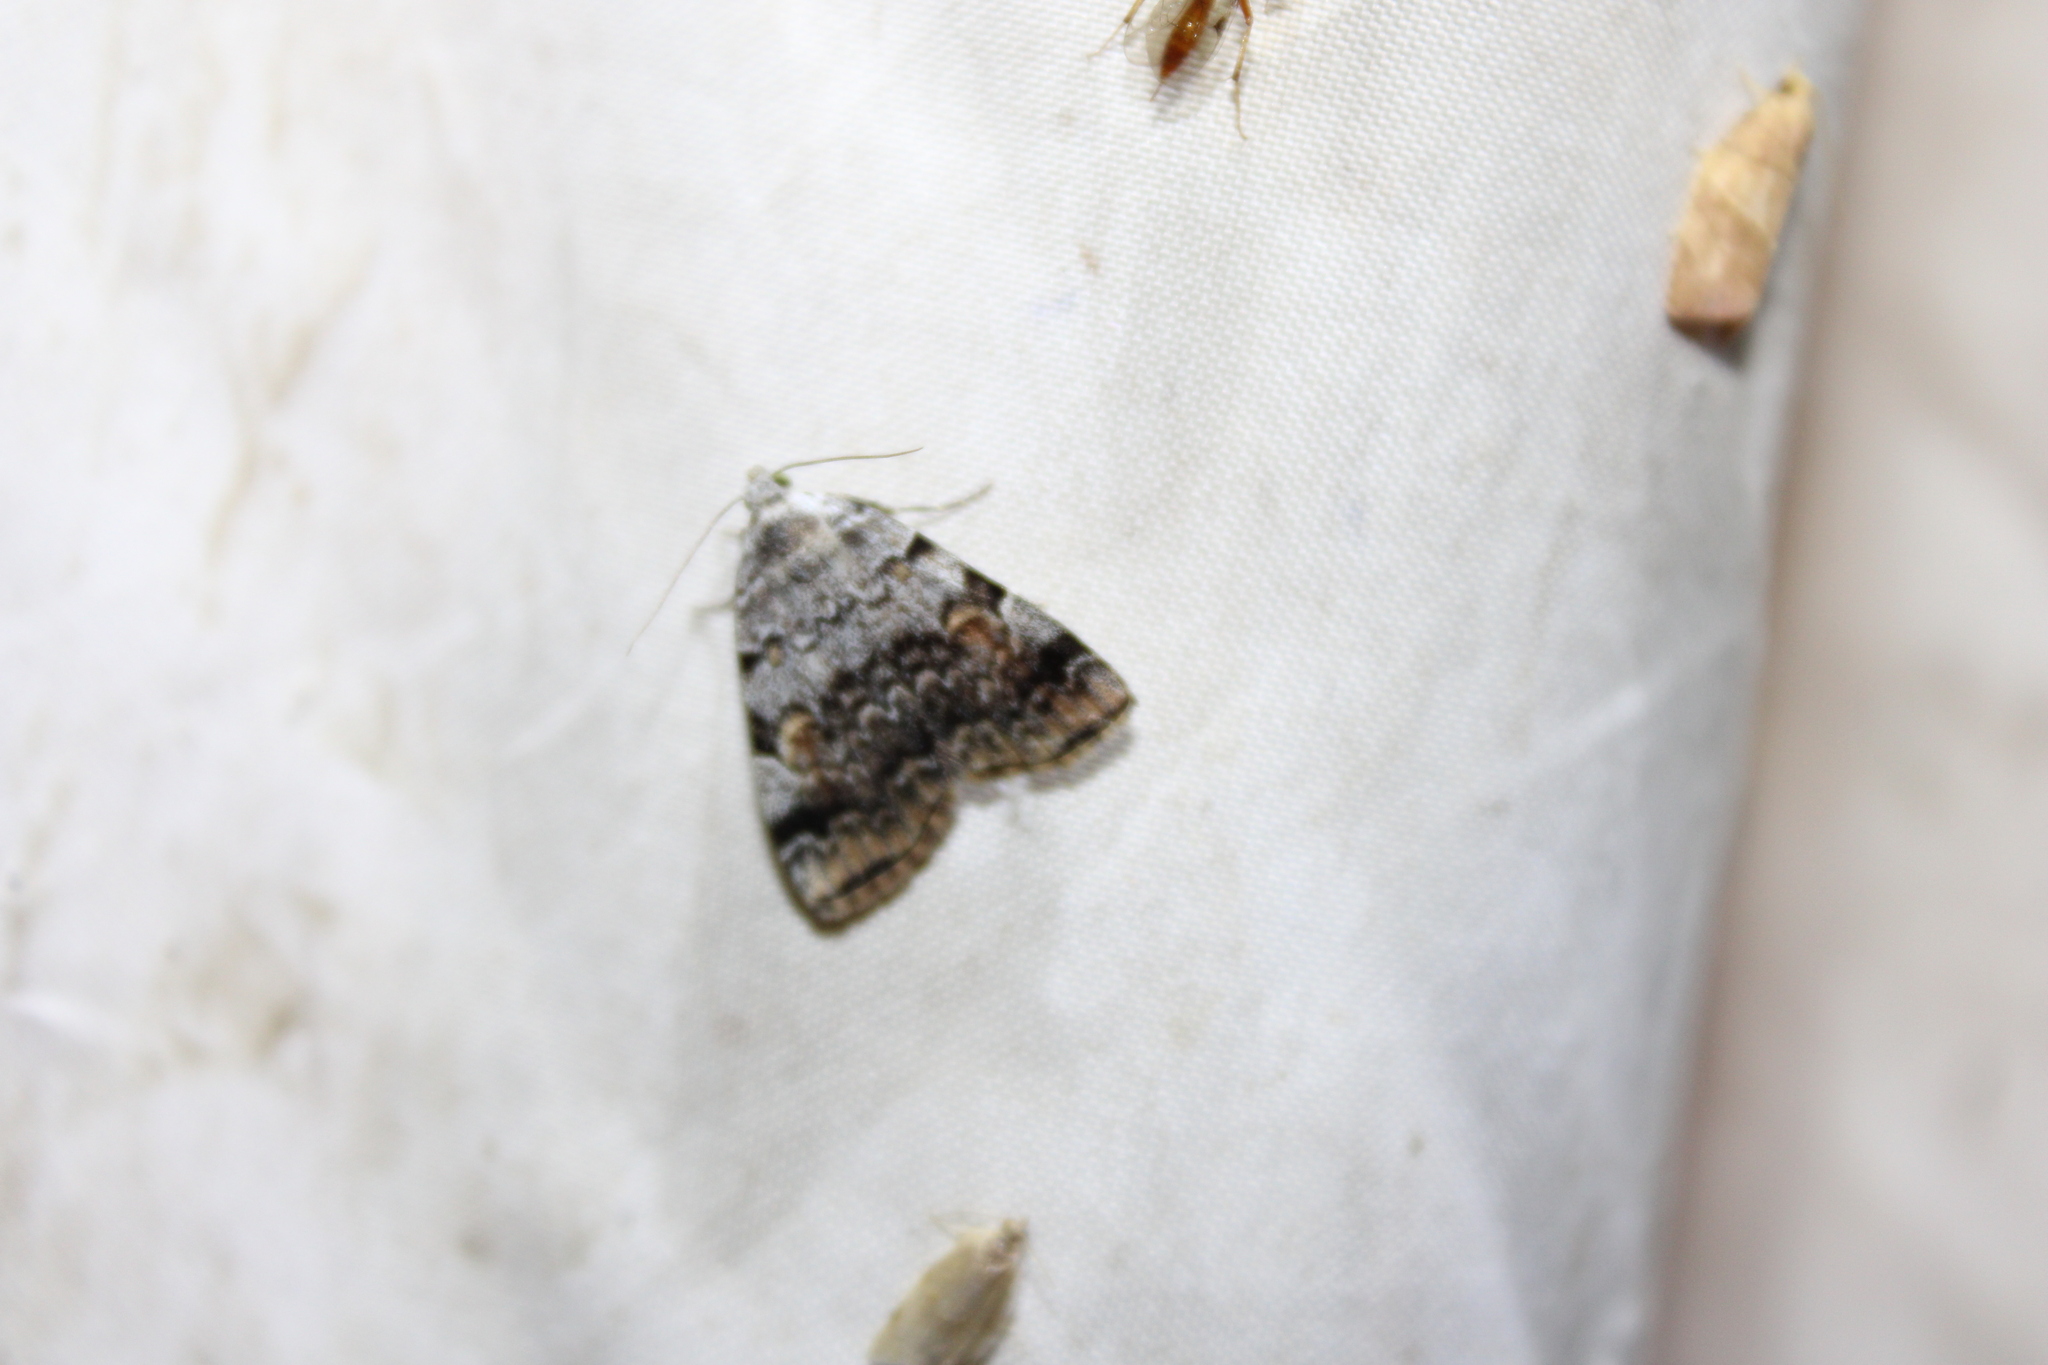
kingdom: Animalia
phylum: Arthropoda
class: Insecta
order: Lepidoptera
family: Erebidae
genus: Idia
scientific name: Idia americalis
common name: American idia moth
